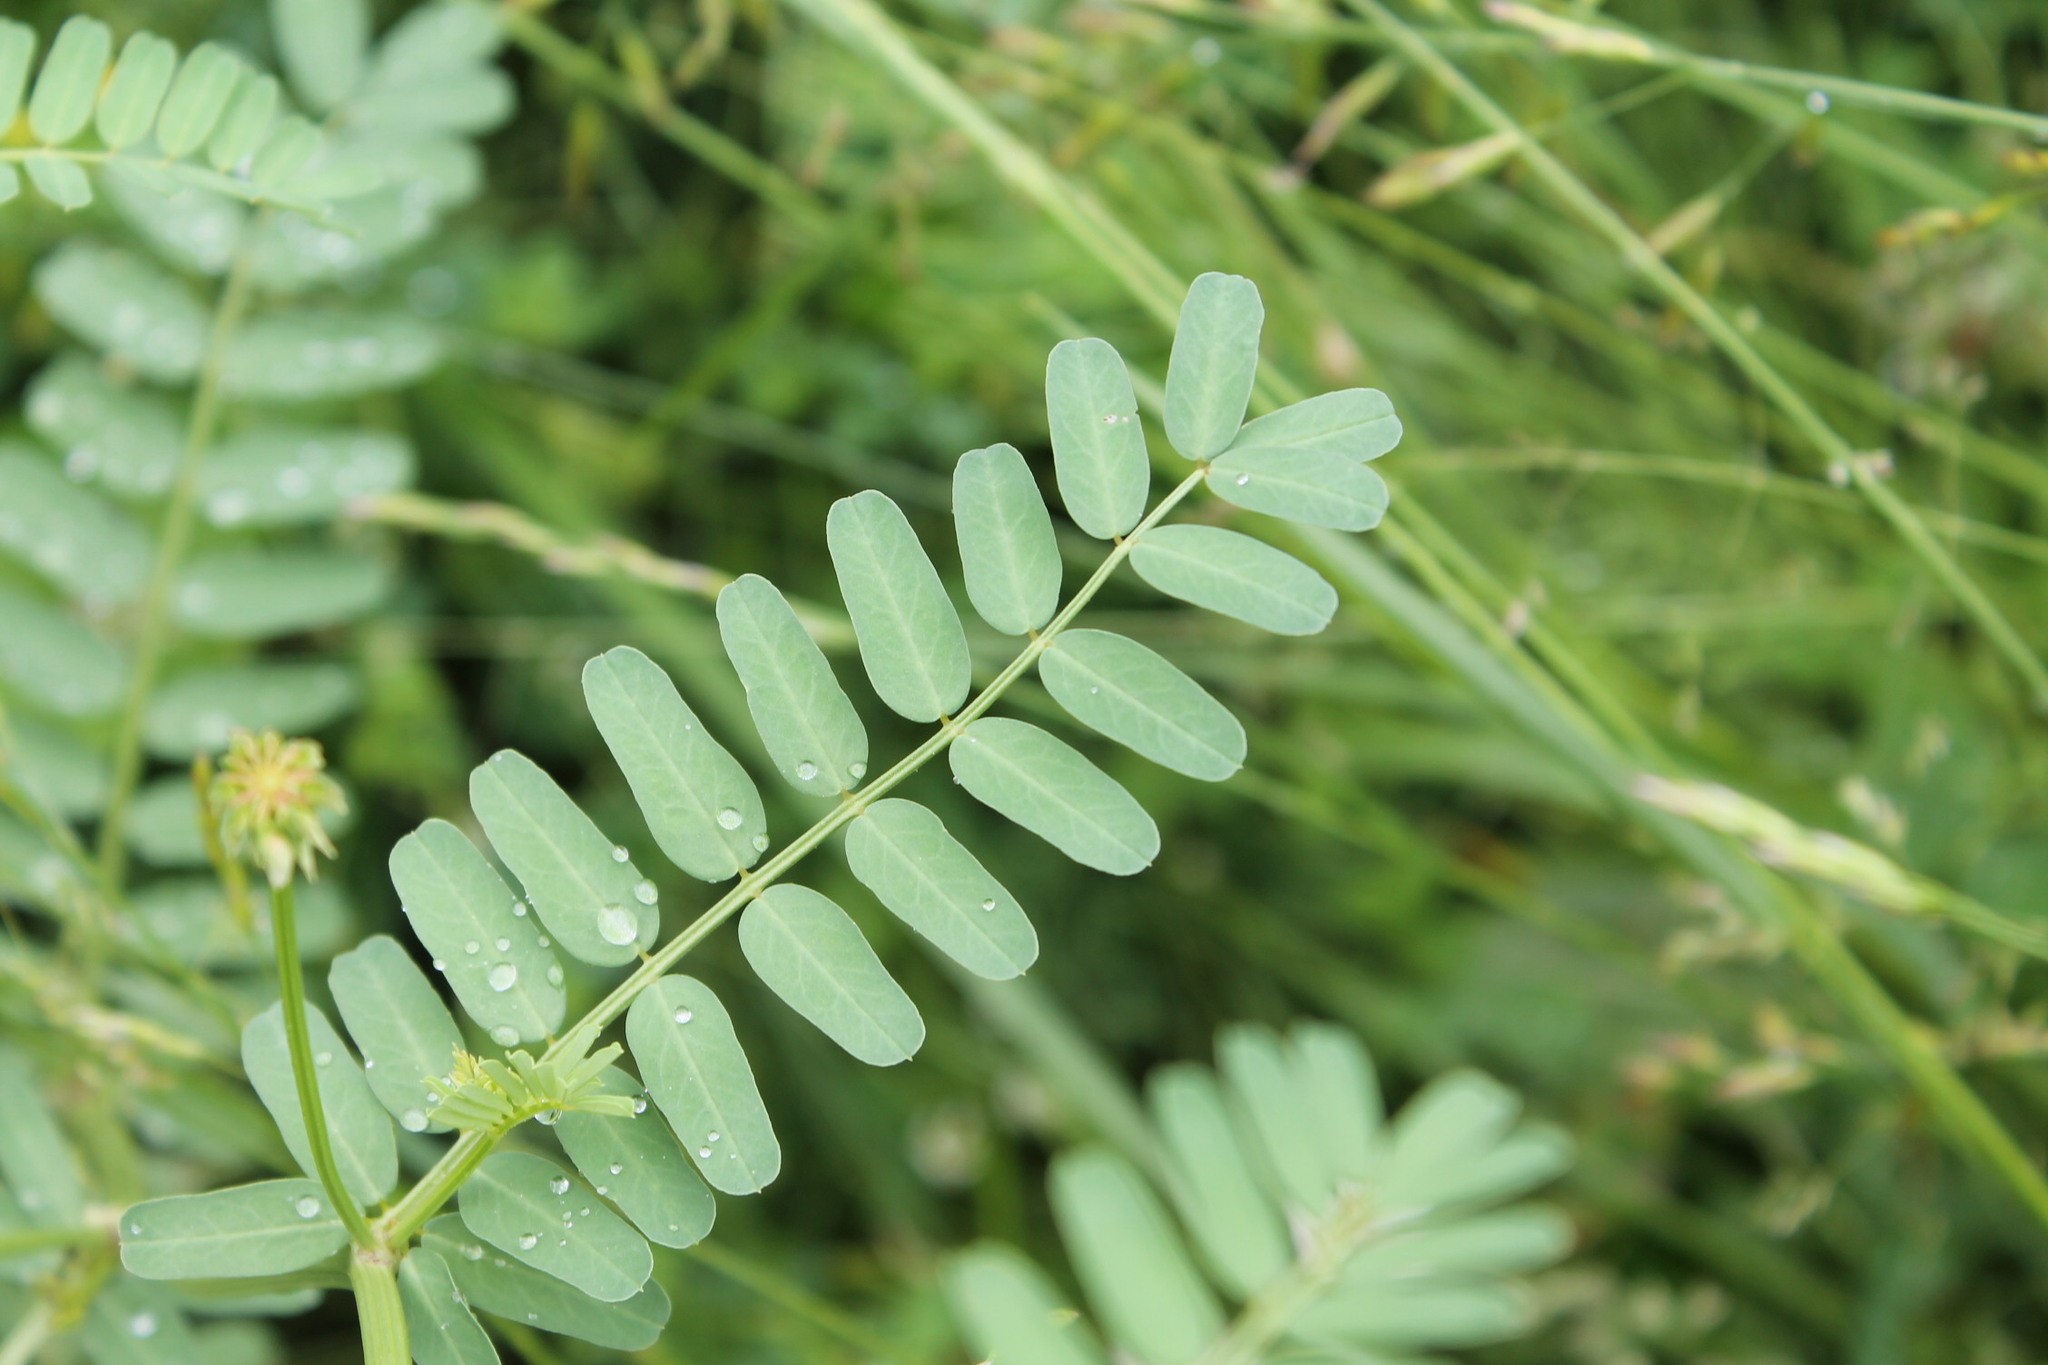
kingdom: Plantae
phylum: Tracheophyta
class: Magnoliopsida
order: Fabales
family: Fabaceae
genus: Coronilla
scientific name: Coronilla varia
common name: Crownvetch
